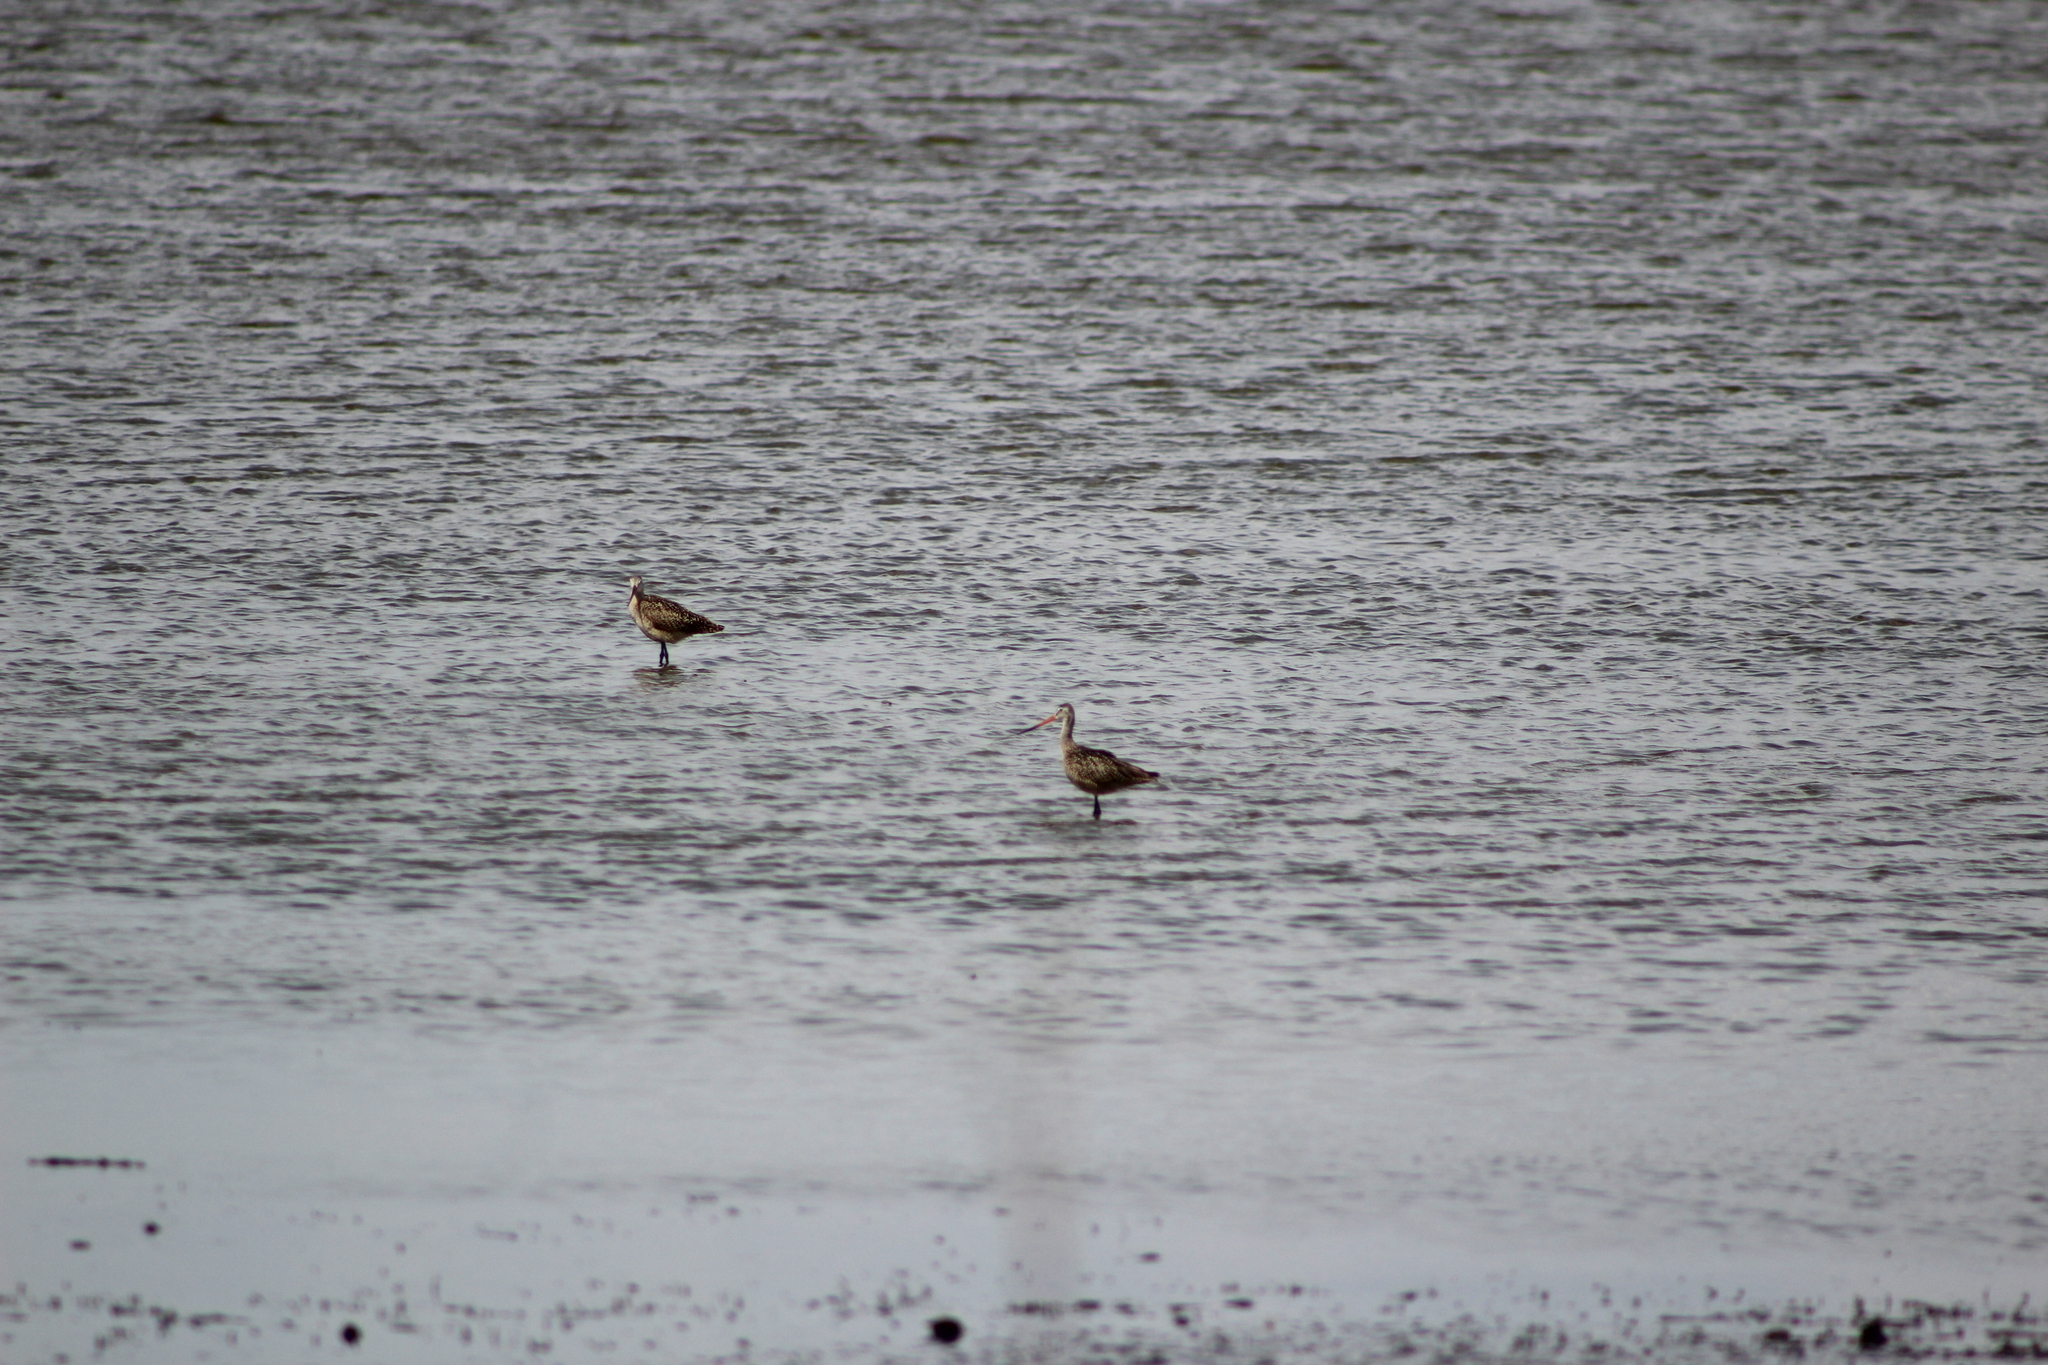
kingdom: Animalia
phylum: Chordata
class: Aves
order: Charadriiformes
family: Scolopacidae
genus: Limosa
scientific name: Limosa fedoa
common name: Marbled godwit
